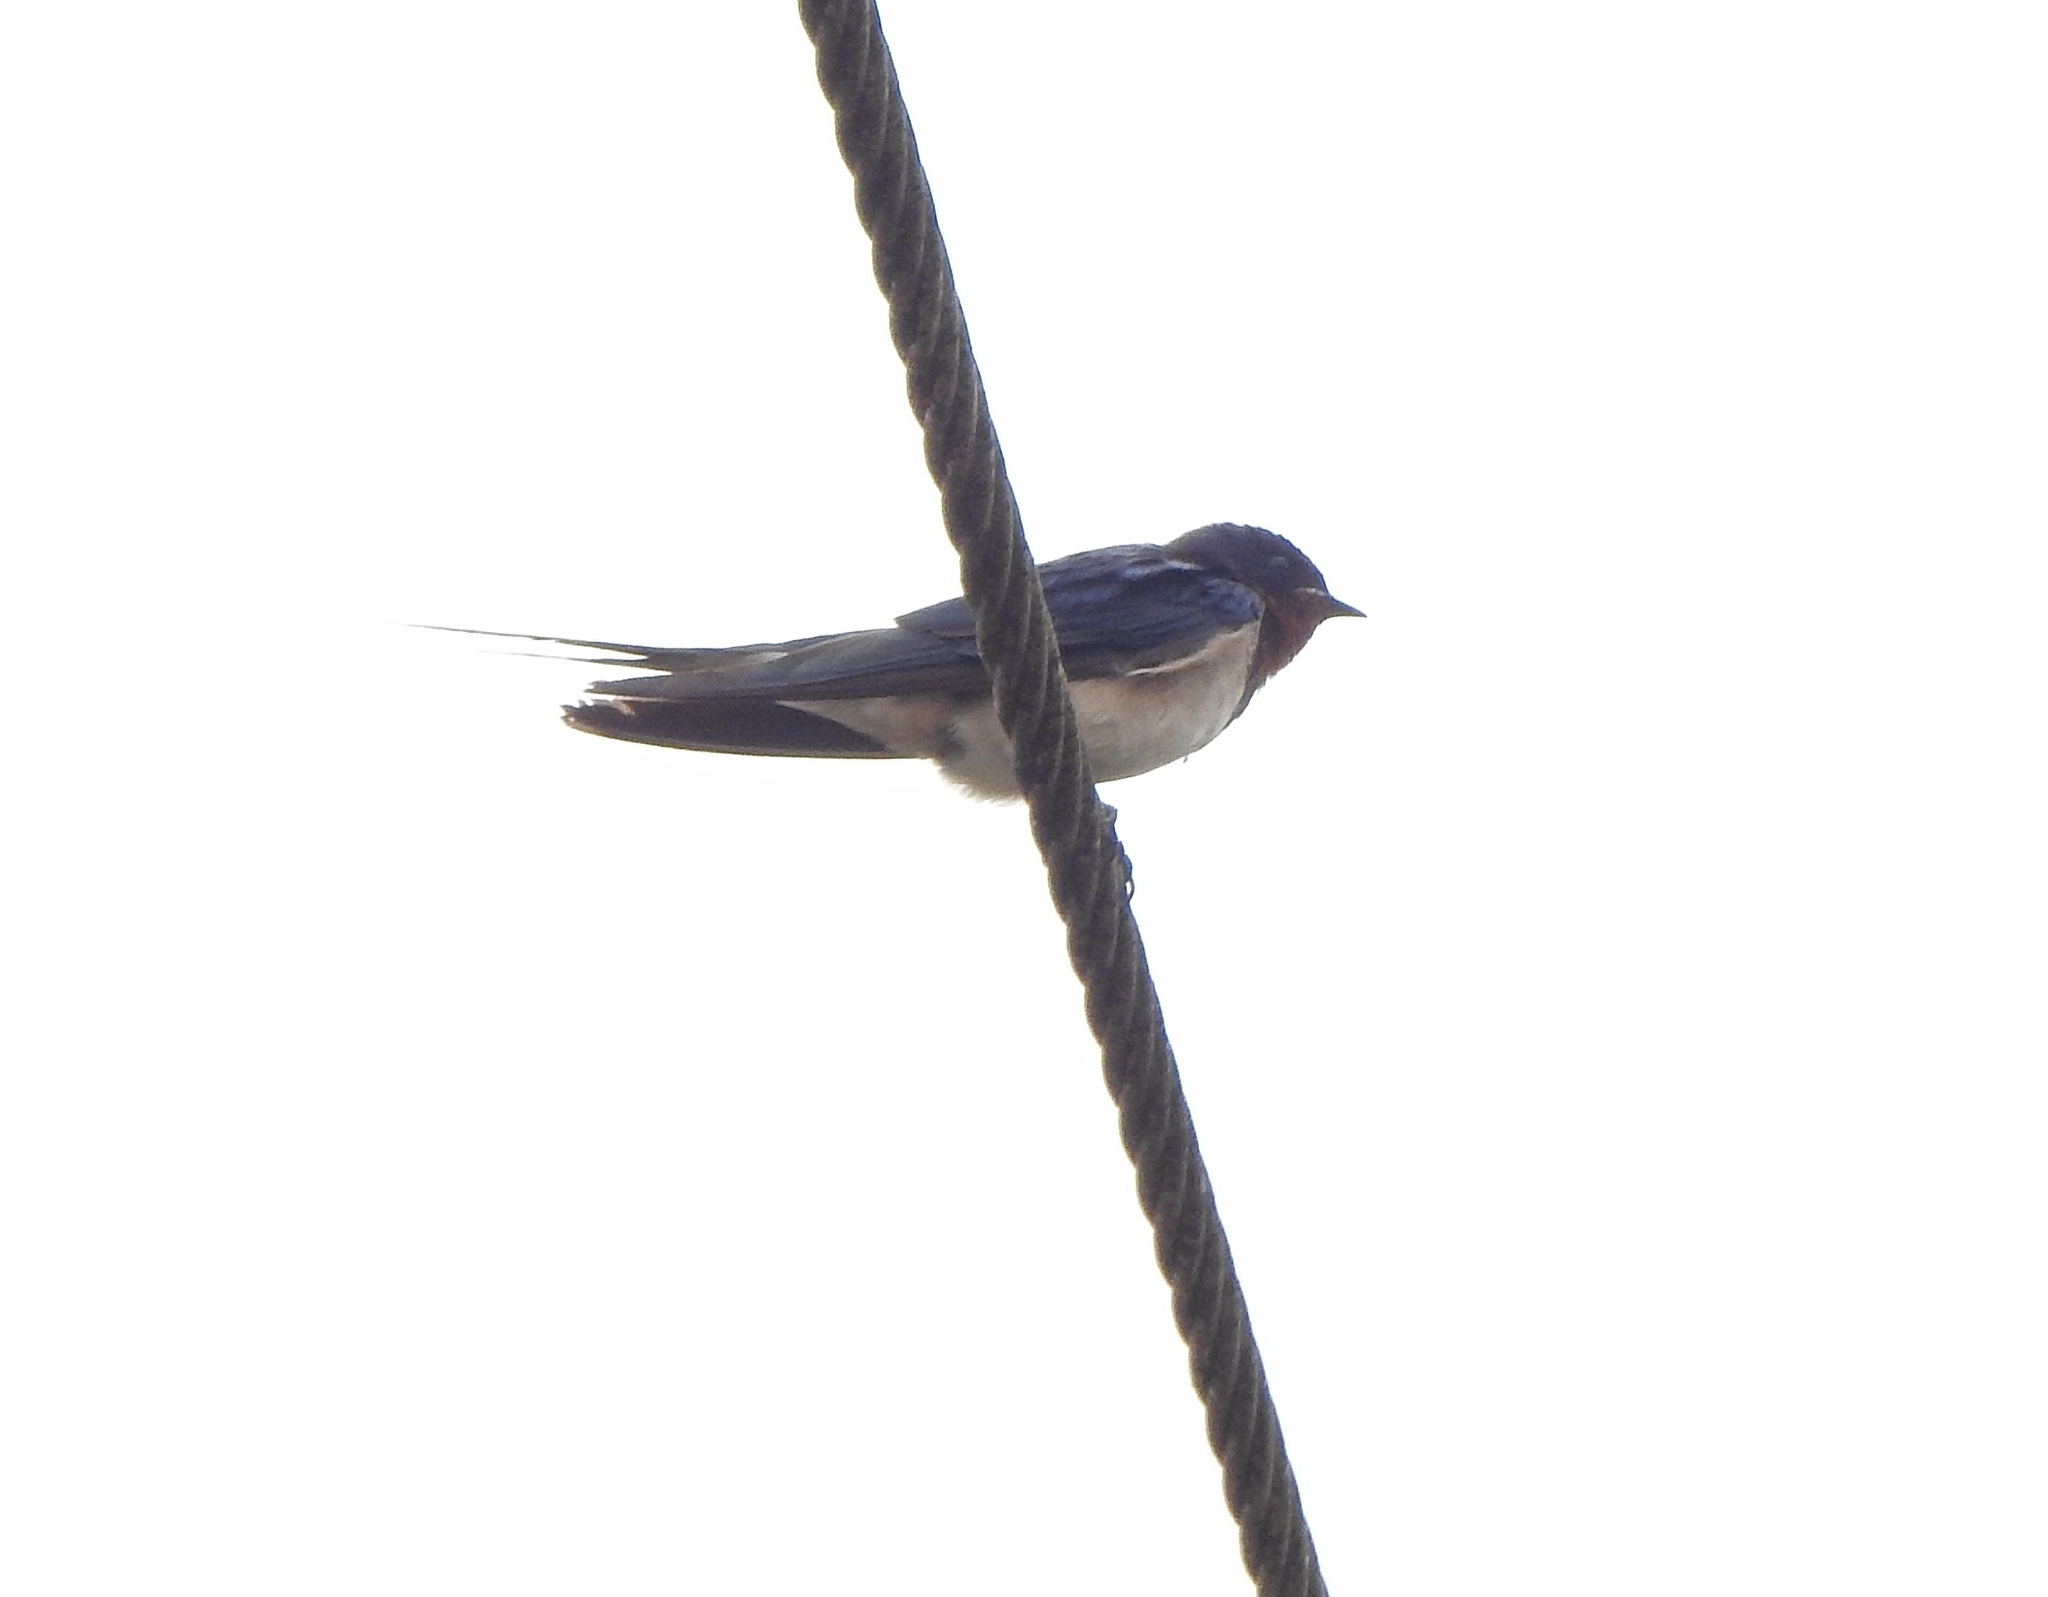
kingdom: Animalia
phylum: Chordata
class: Aves
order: Passeriformes
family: Hirundinidae
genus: Hirundo
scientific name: Hirundo rustica
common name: Barn swallow
